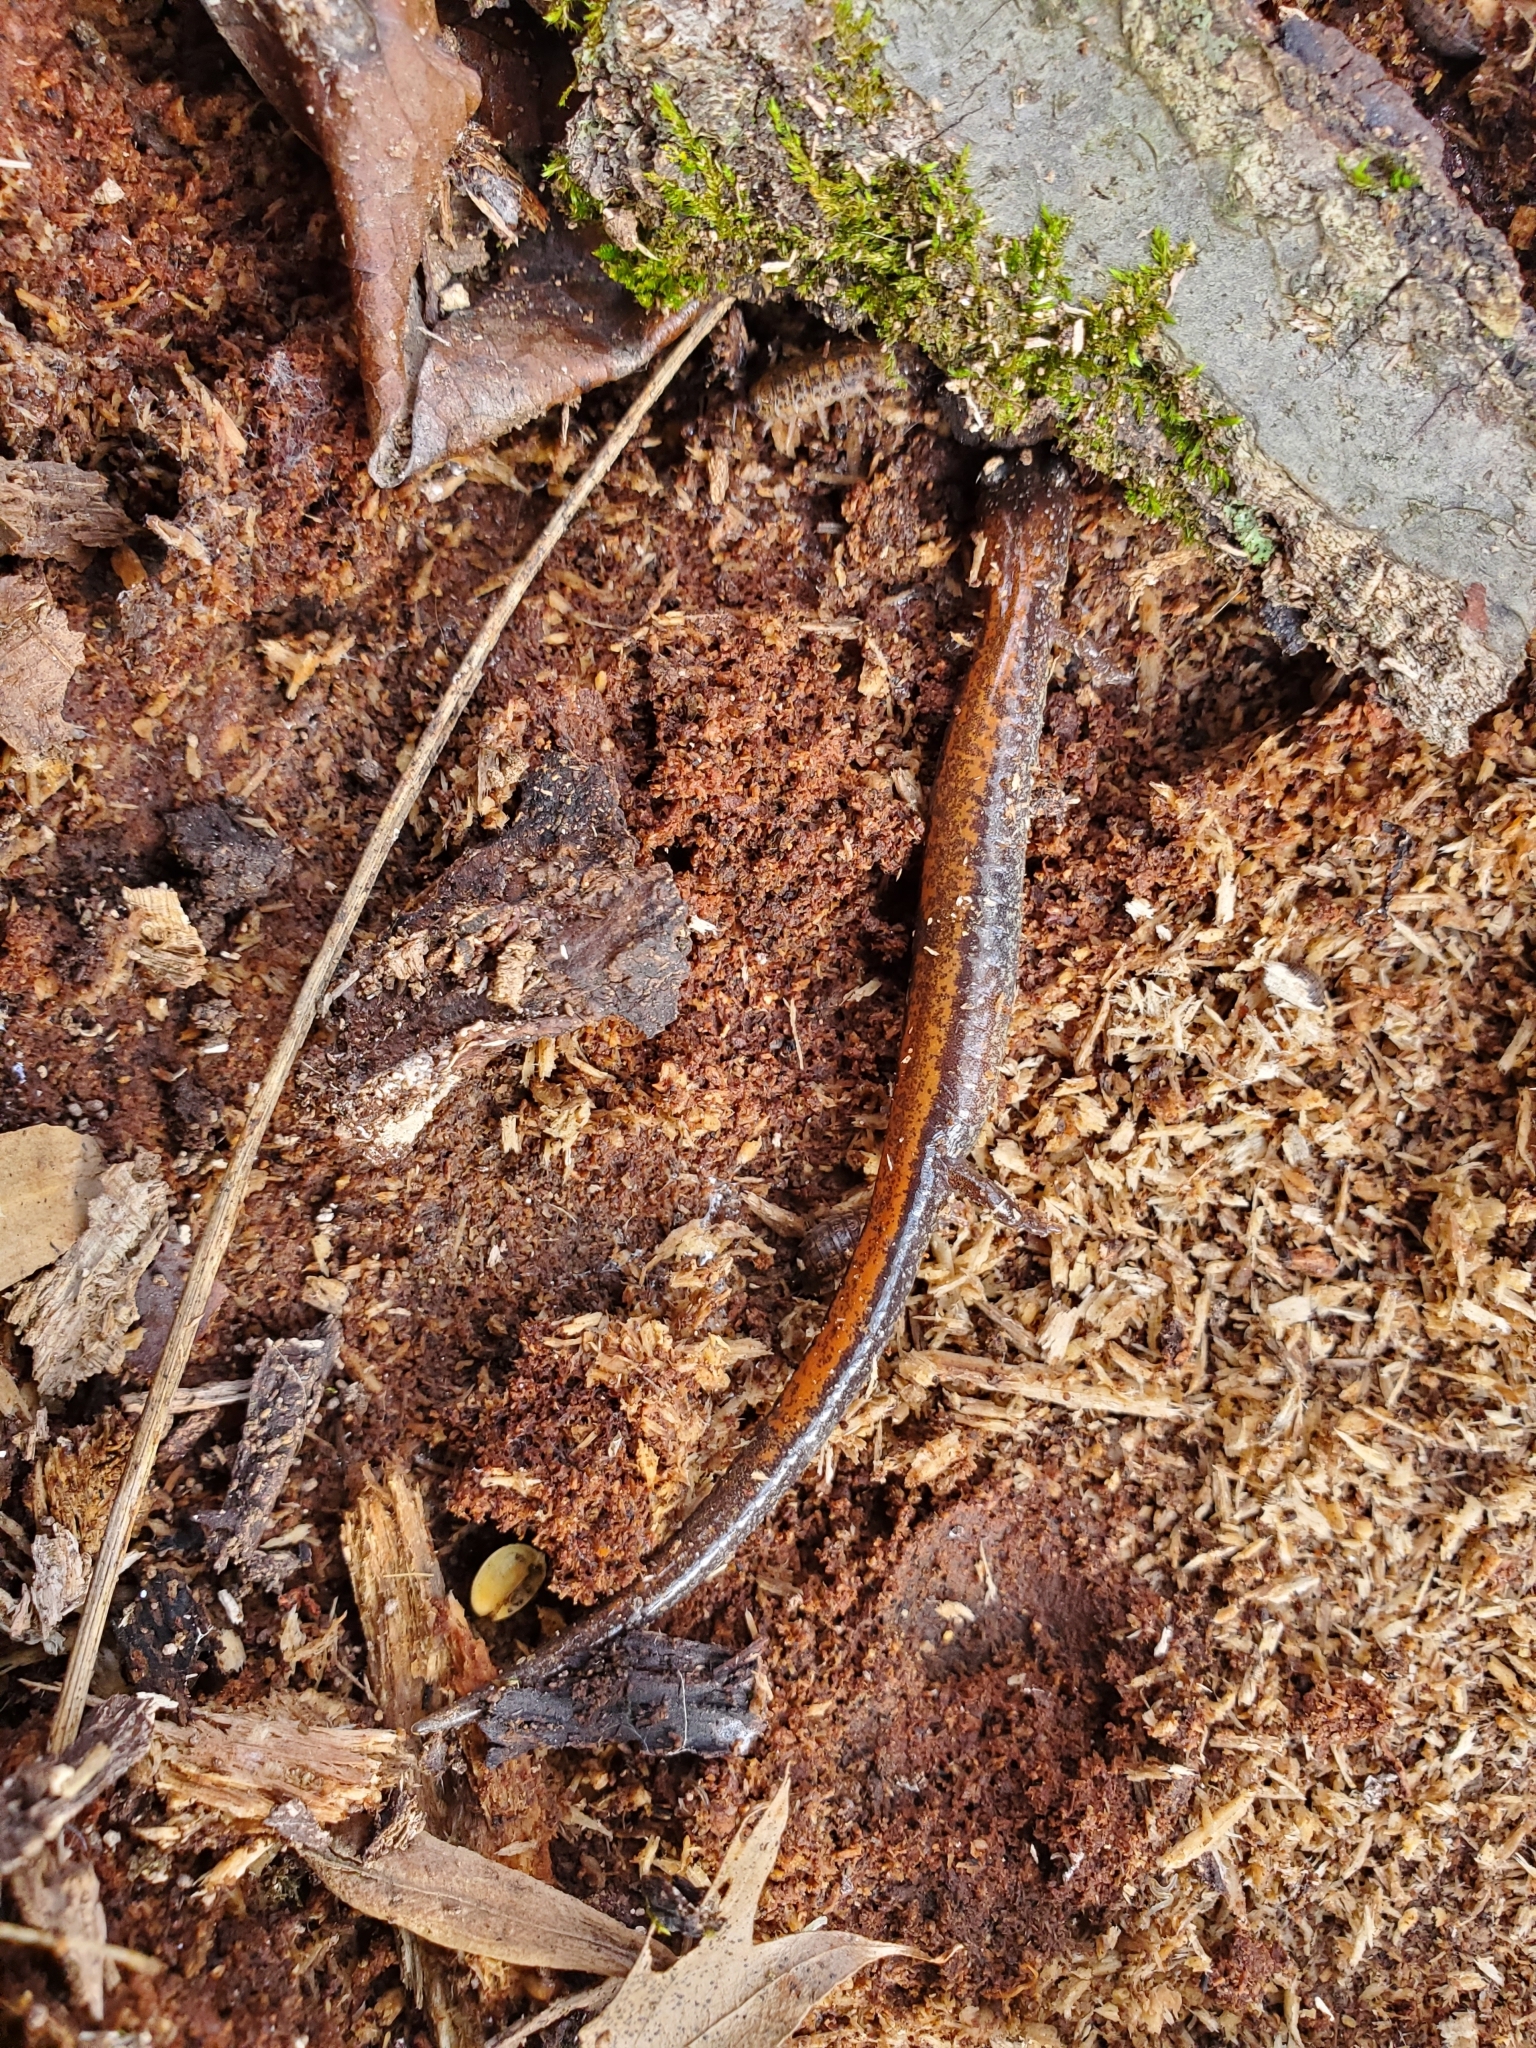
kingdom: Animalia
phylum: Chordata
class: Amphibia
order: Caudata
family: Plethodontidae
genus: Plethodon
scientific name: Plethodon cinereus
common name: Redback salamander
